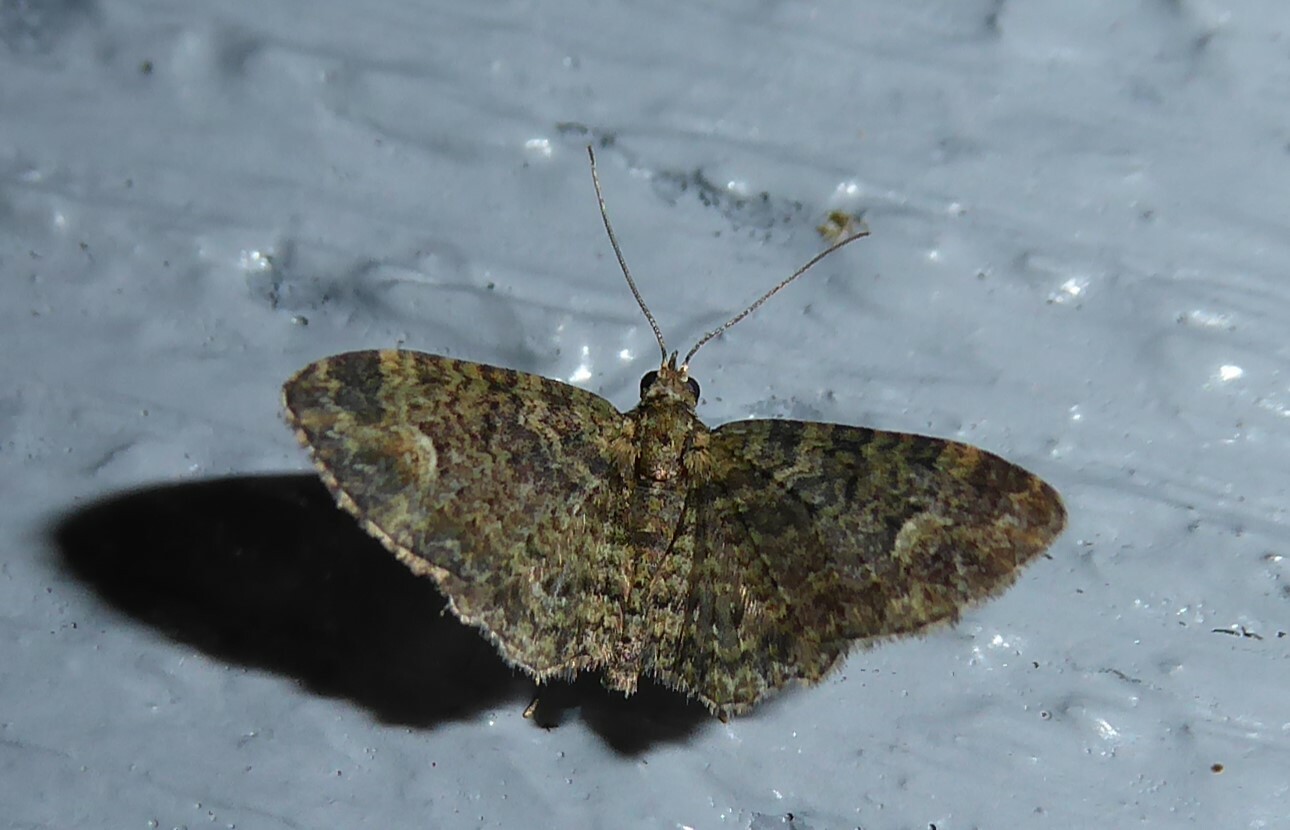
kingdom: Animalia
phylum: Arthropoda
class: Insecta
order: Lepidoptera
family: Geometridae
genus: Pasiphilodes
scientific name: Pasiphilodes testulata
